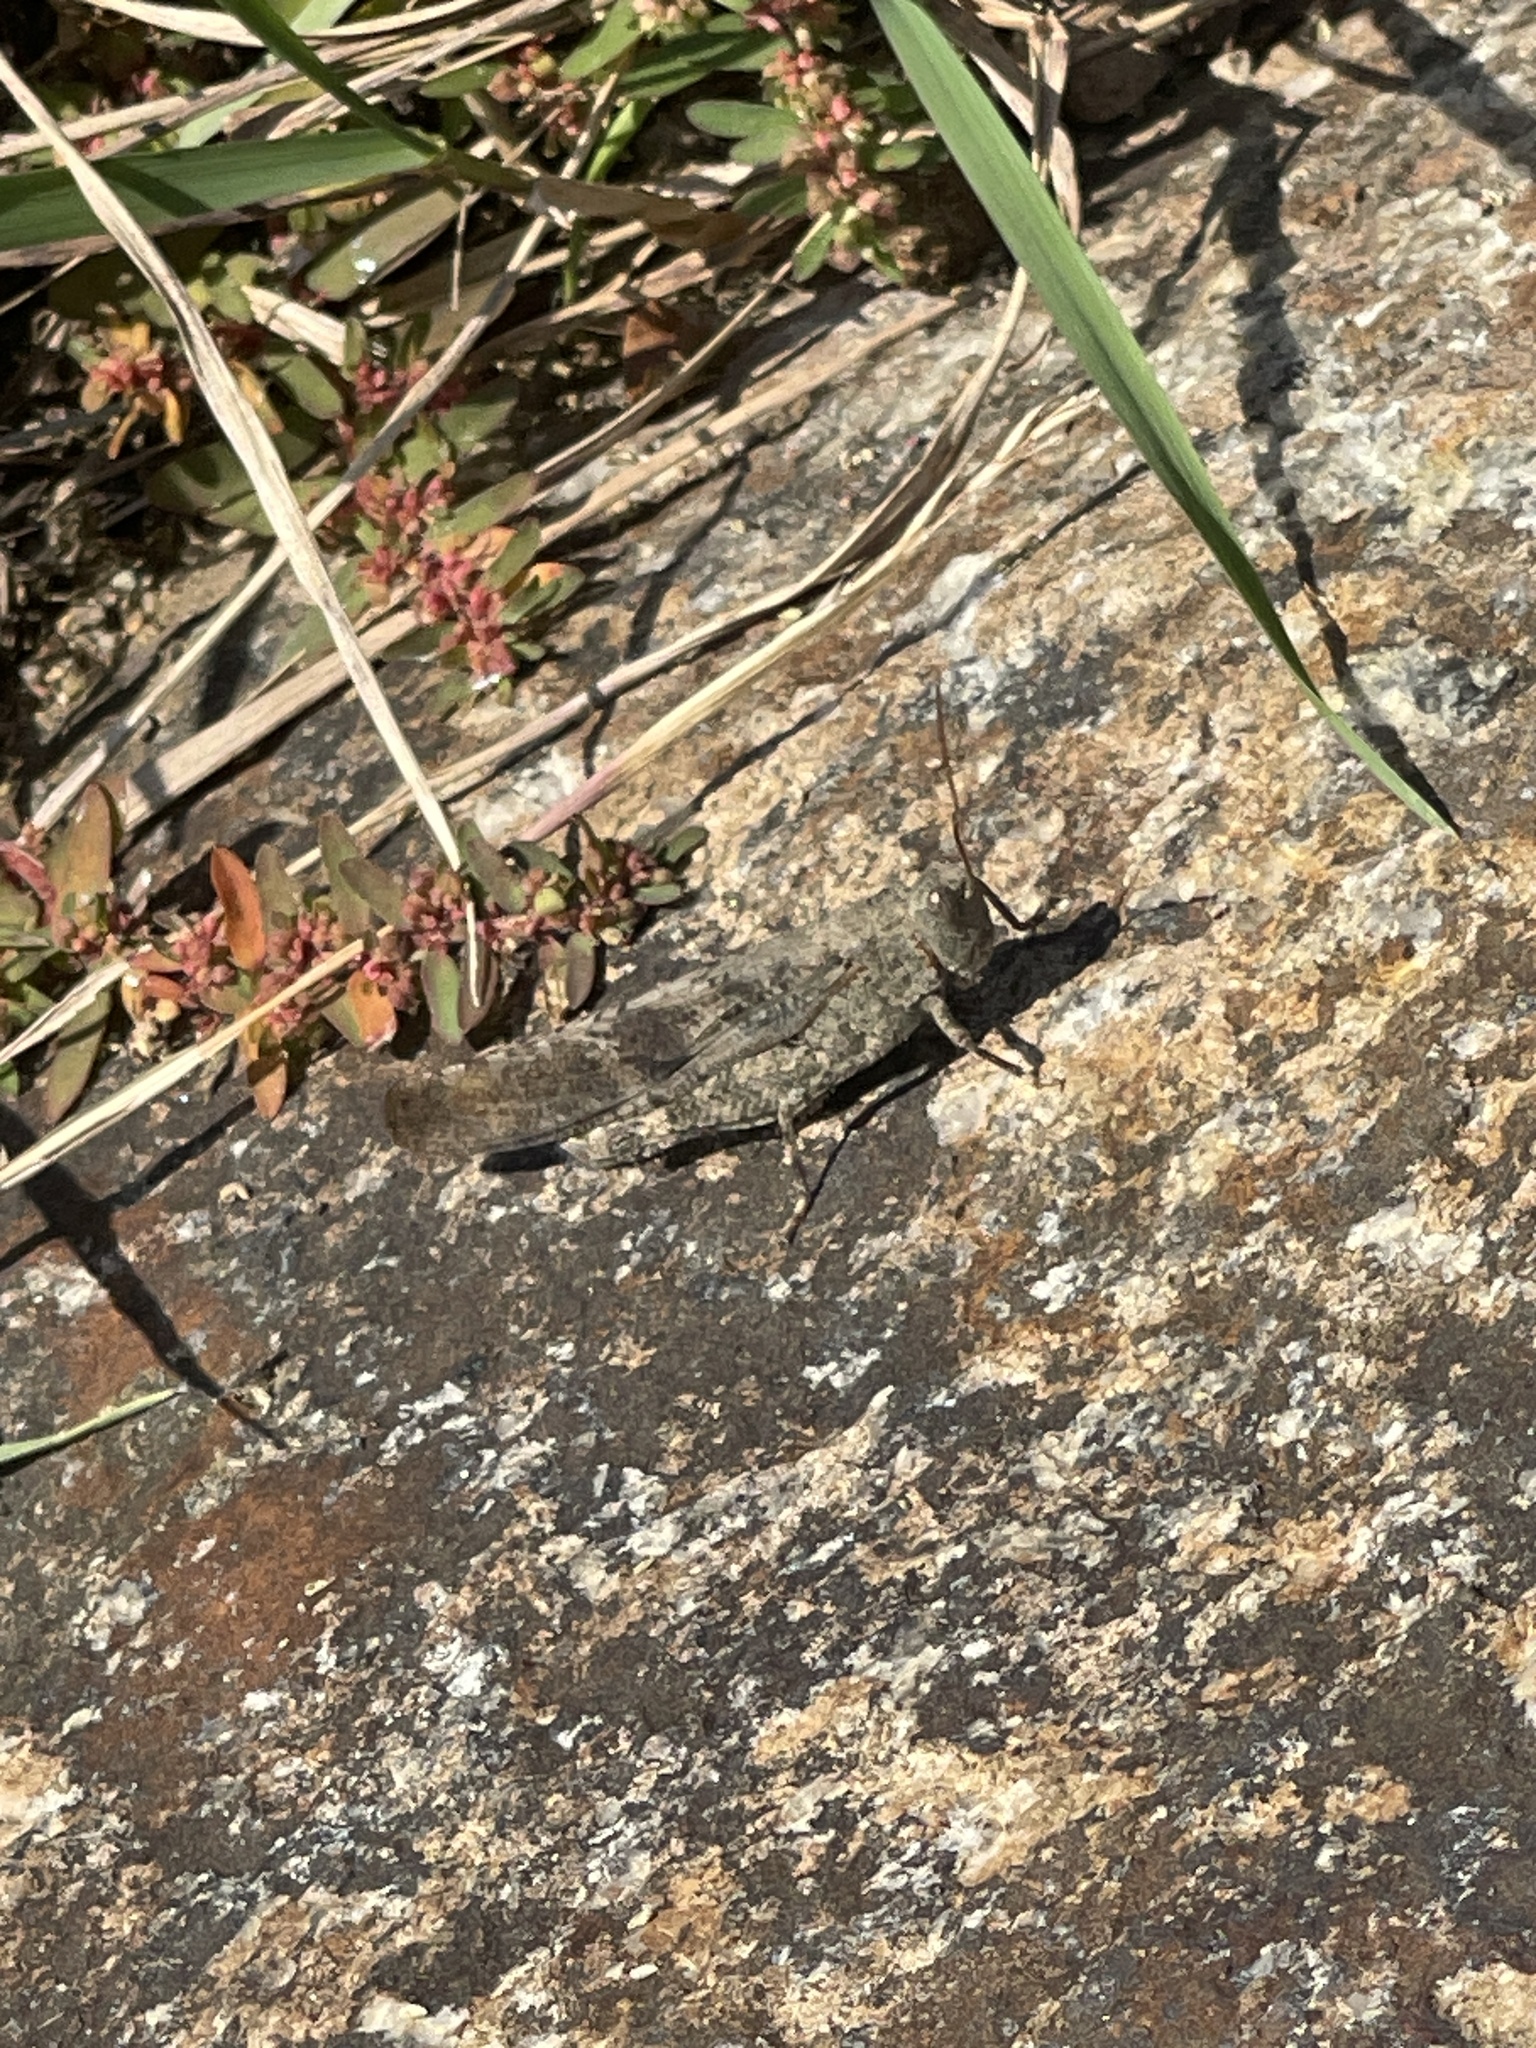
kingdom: Animalia
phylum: Arthropoda
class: Insecta
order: Orthoptera
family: Acrididae
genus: Dissosteira
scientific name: Dissosteira carolina
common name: Carolina grasshopper
